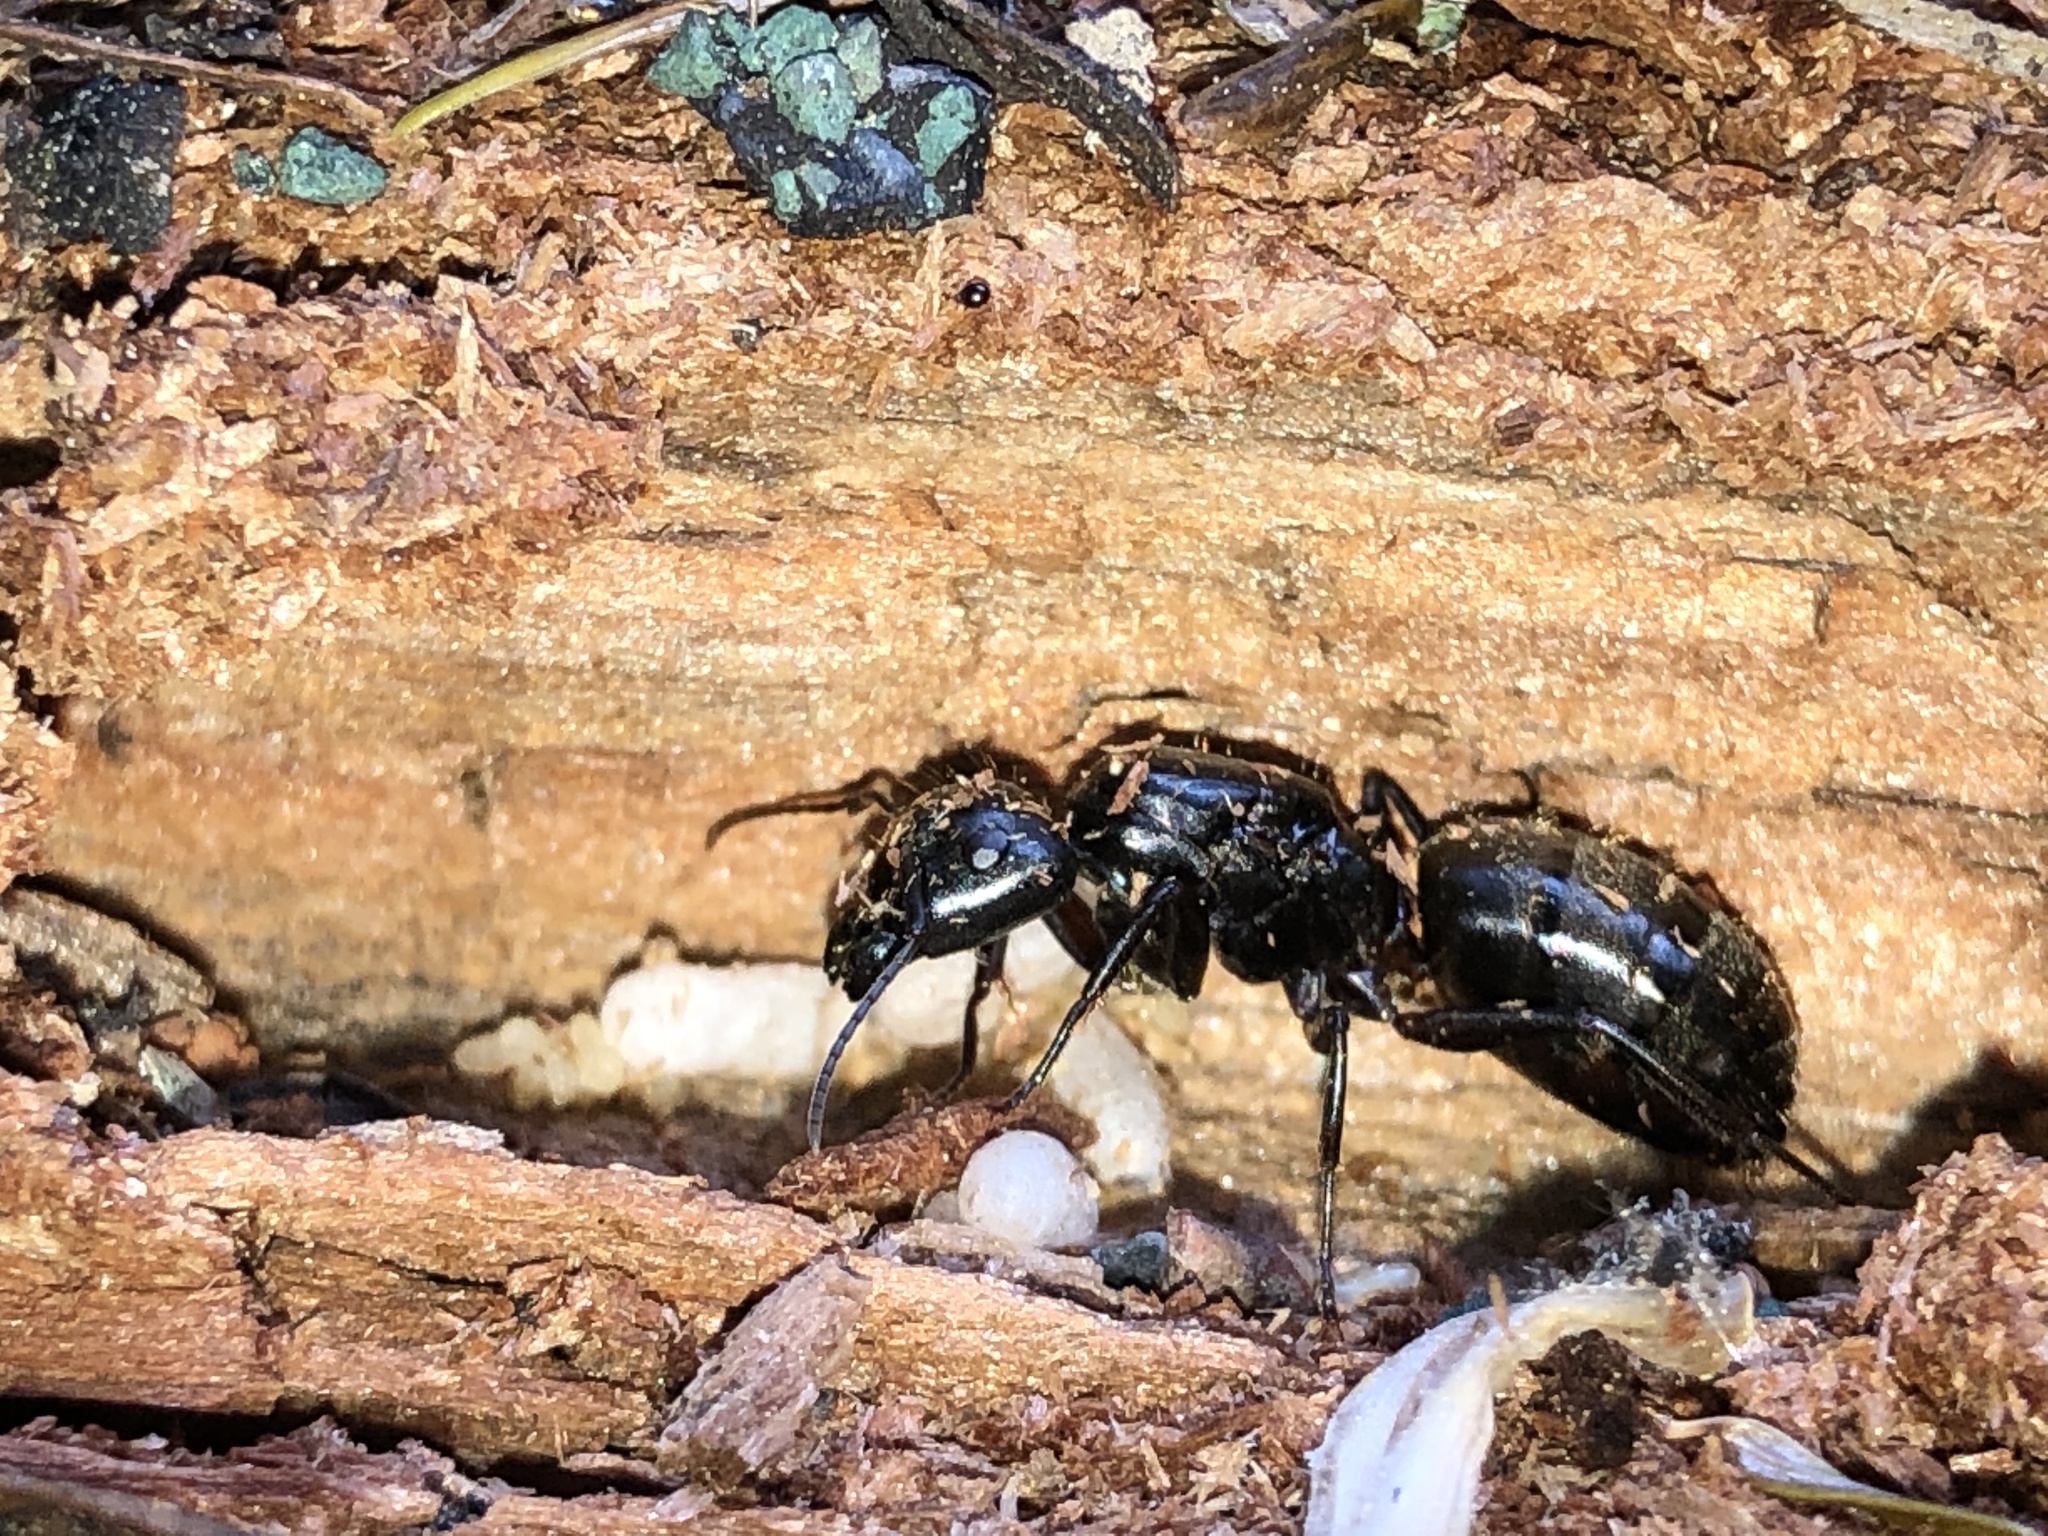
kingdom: Animalia
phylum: Arthropoda
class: Insecta
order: Hymenoptera
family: Formicidae
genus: Camponotus
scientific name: Camponotus pennsylvanicus
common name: Black carpenter ant
